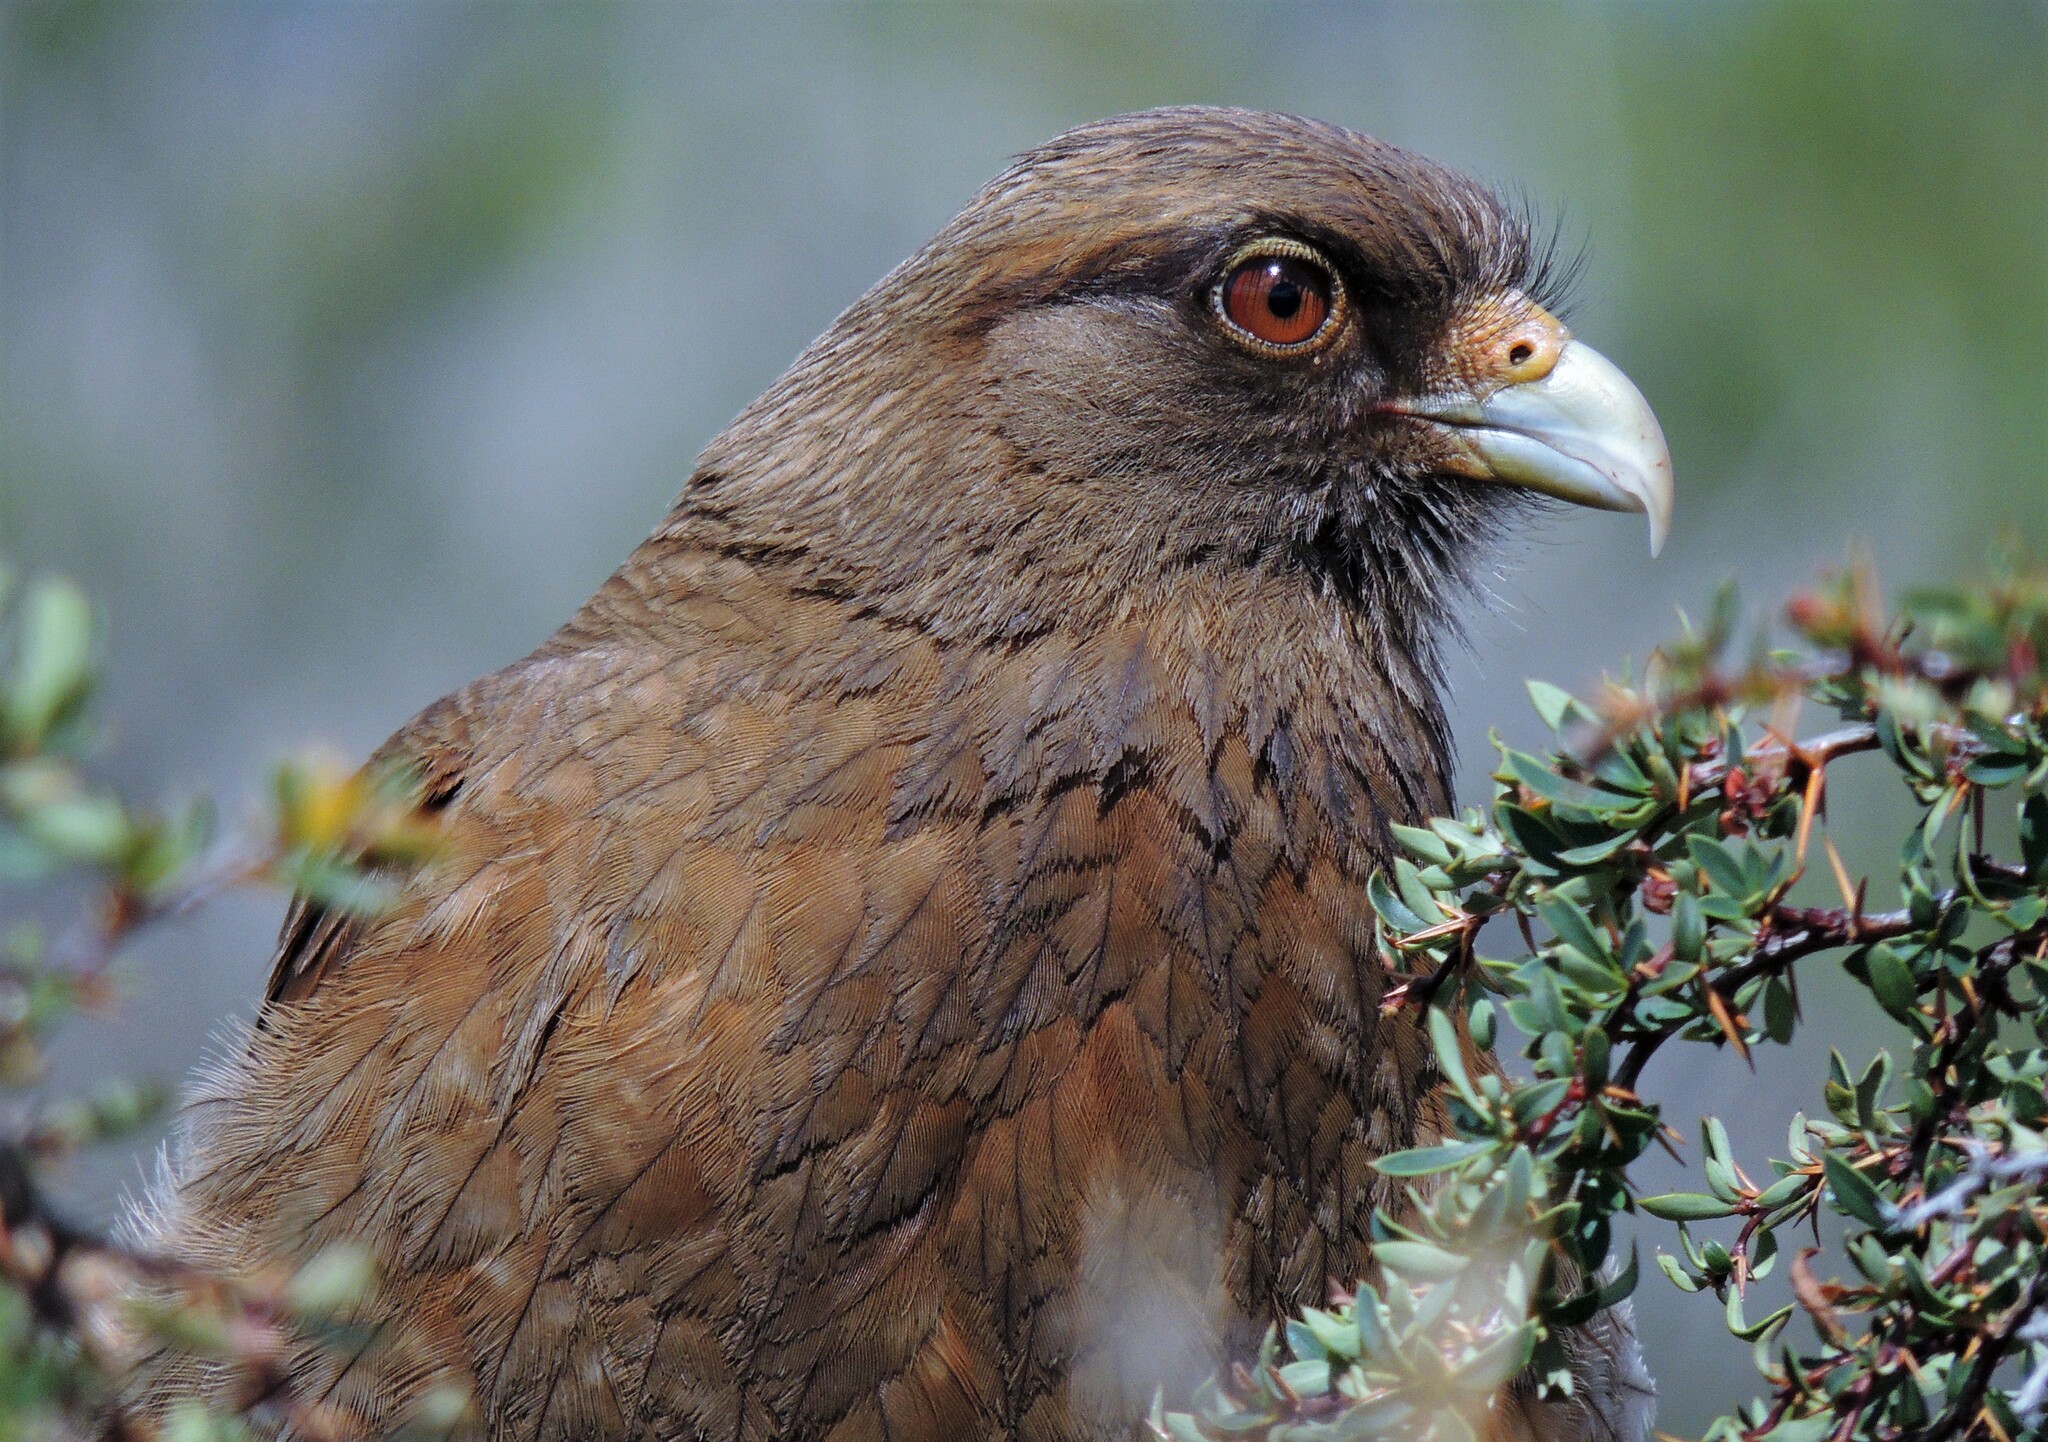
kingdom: Animalia
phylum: Chordata
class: Aves
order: Falconiformes
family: Falconidae
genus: Daptrius
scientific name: Daptrius
